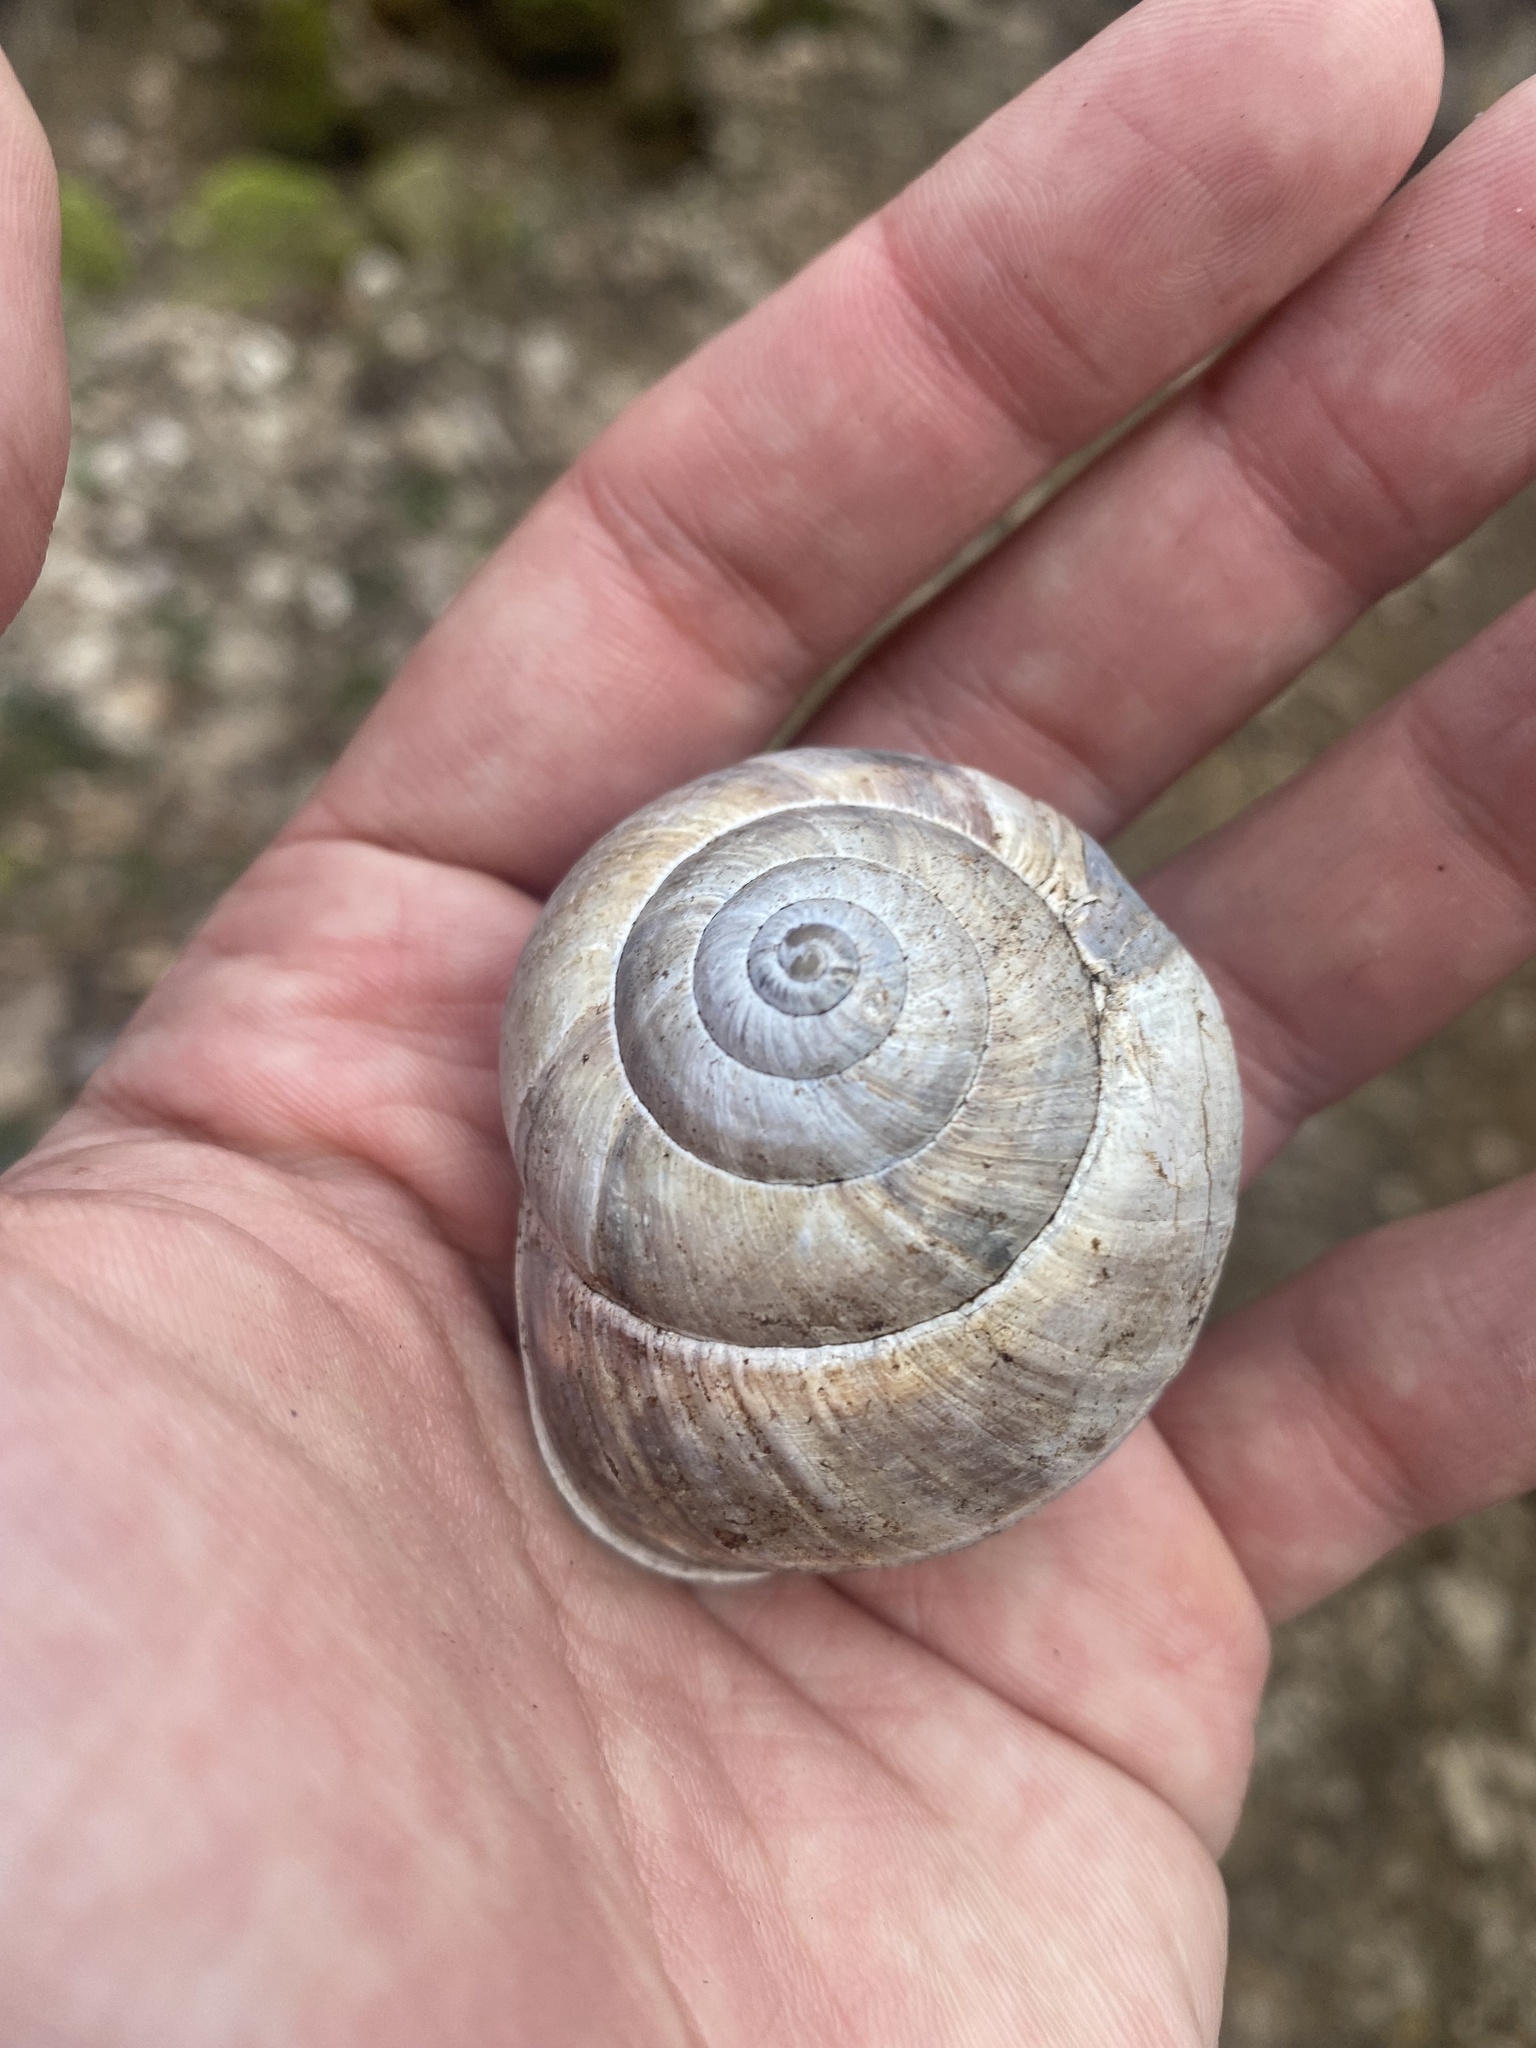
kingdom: Animalia
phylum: Mollusca
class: Gastropoda
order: Stylommatophora
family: Helicidae
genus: Helix
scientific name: Helix lucorum
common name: Turkish snail
